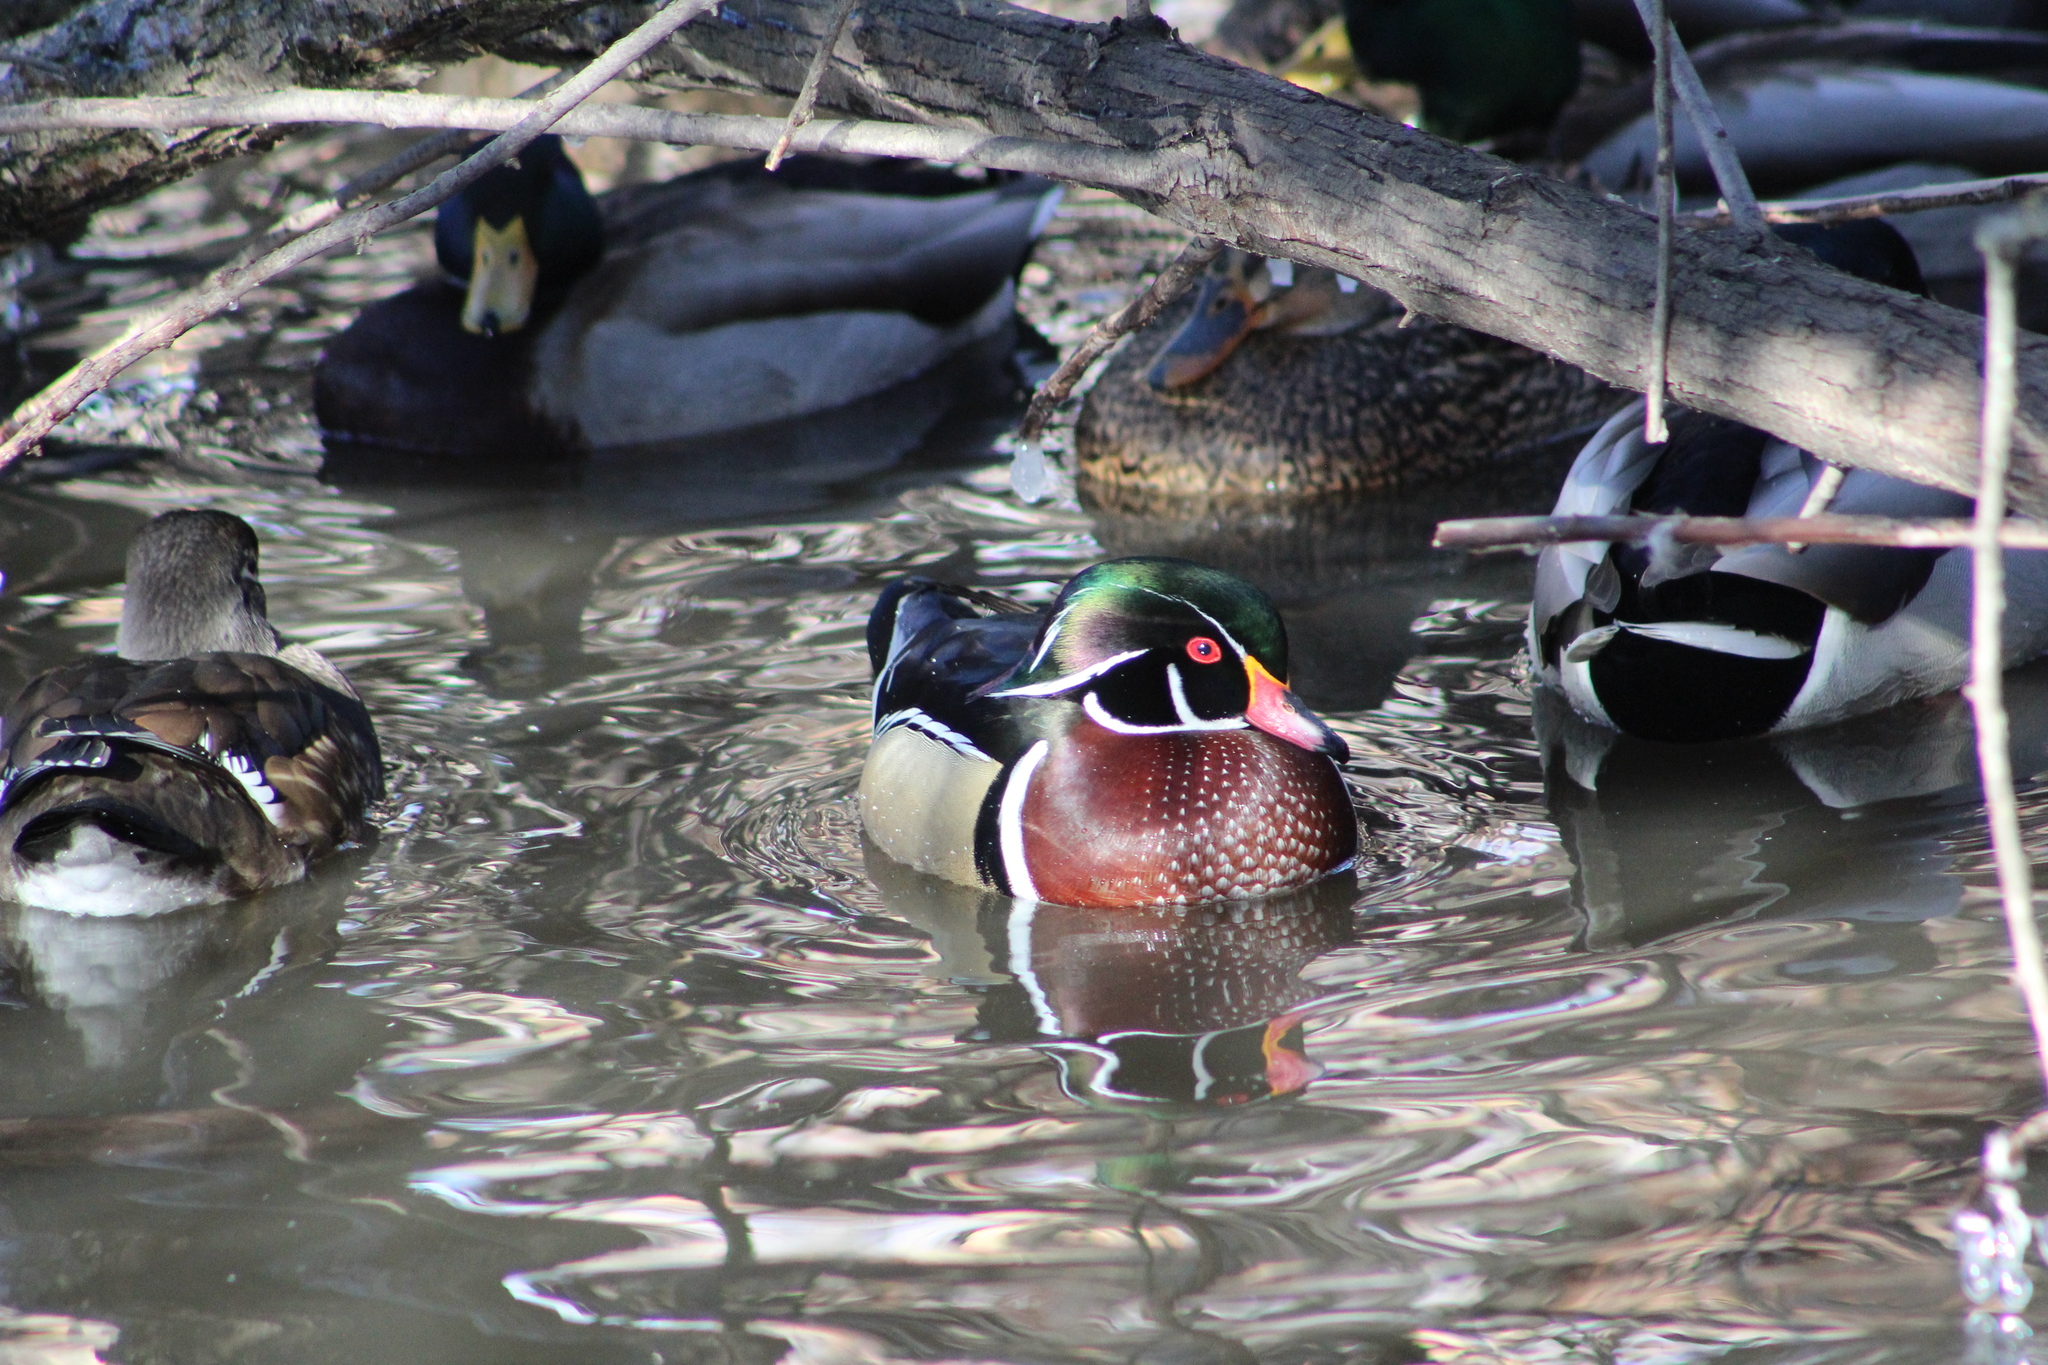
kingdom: Animalia
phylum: Chordata
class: Aves
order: Anseriformes
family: Anatidae
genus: Aix
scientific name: Aix sponsa
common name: Wood duck
